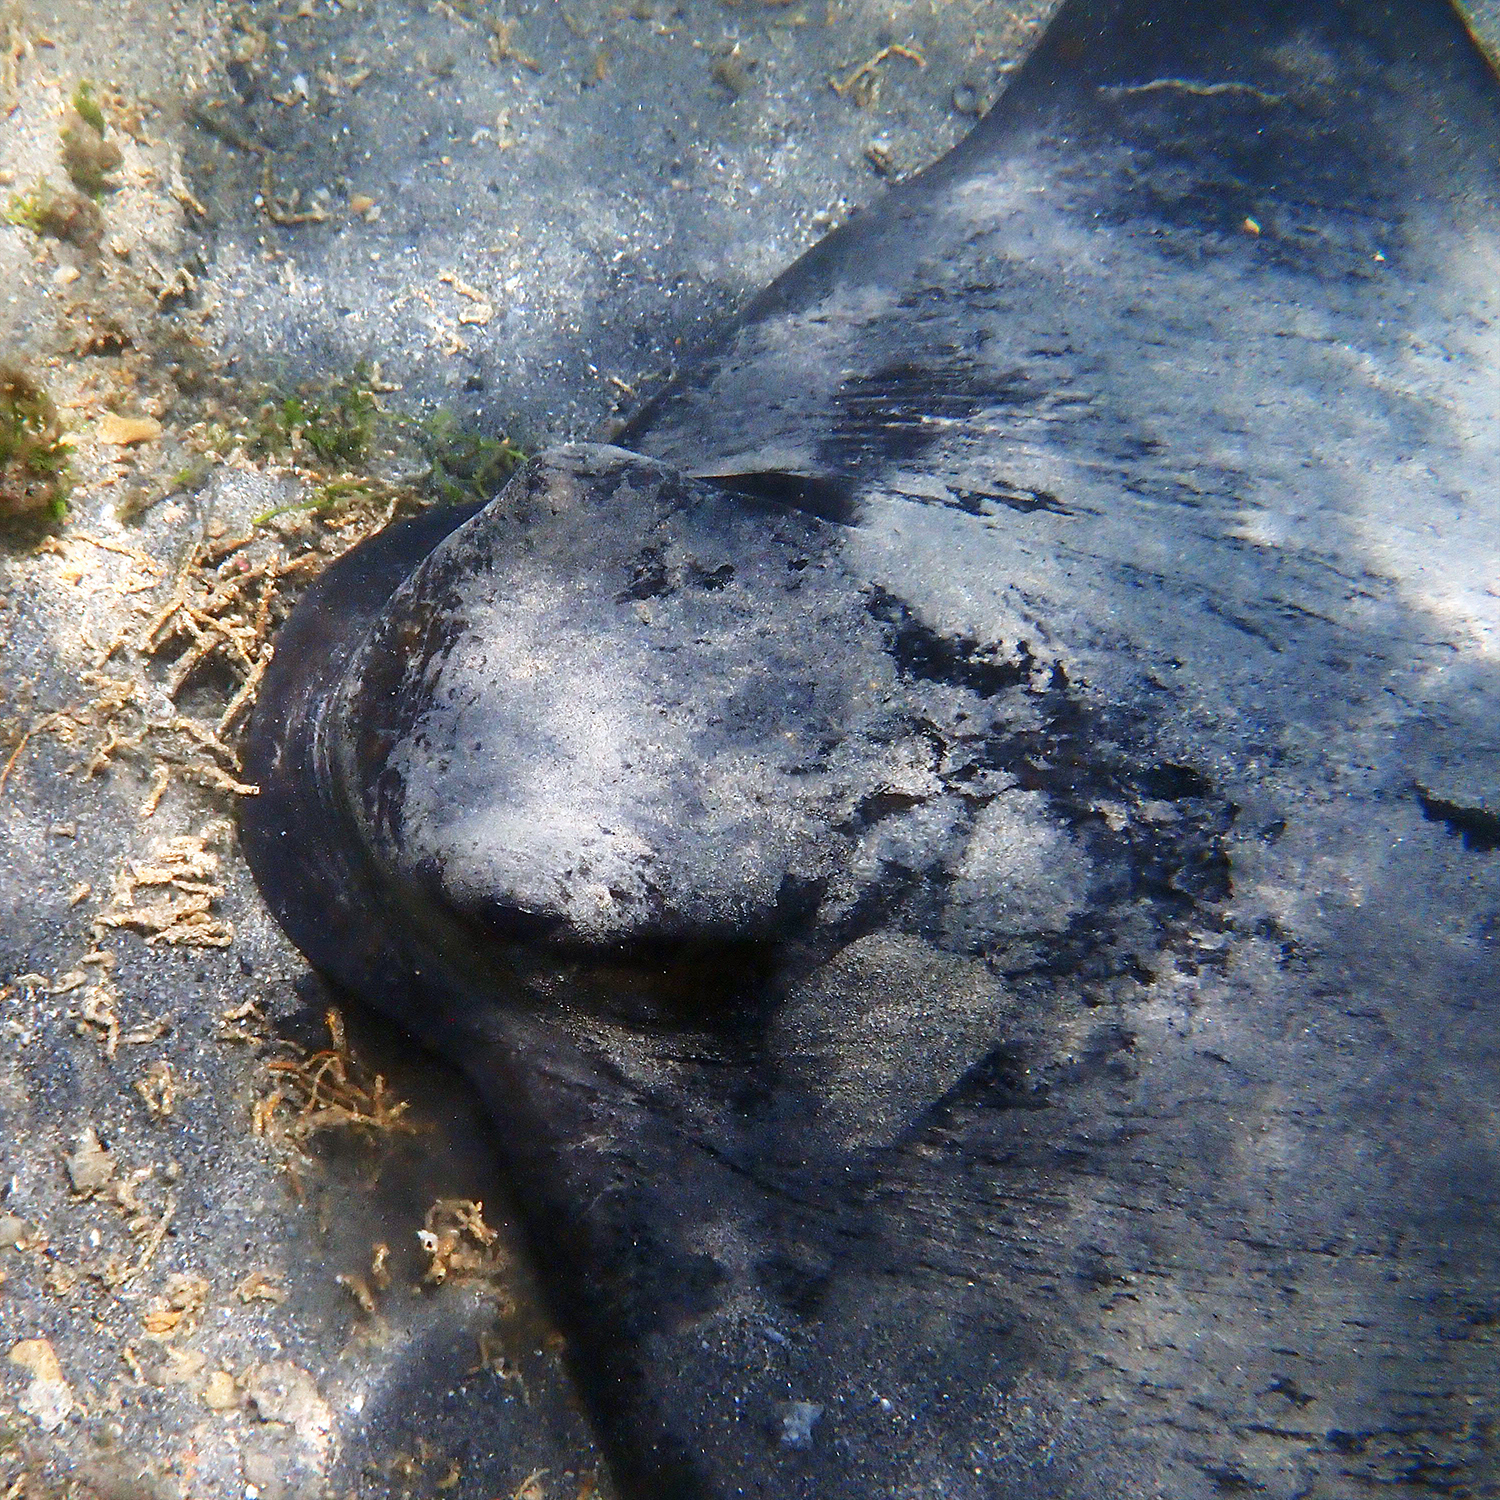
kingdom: Animalia
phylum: Chordata
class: Elasmobranchii
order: Myliobatiformes
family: Myliobatidae
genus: Myliobatis
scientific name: Myliobatis tenuicaudatus
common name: Eagle ray
